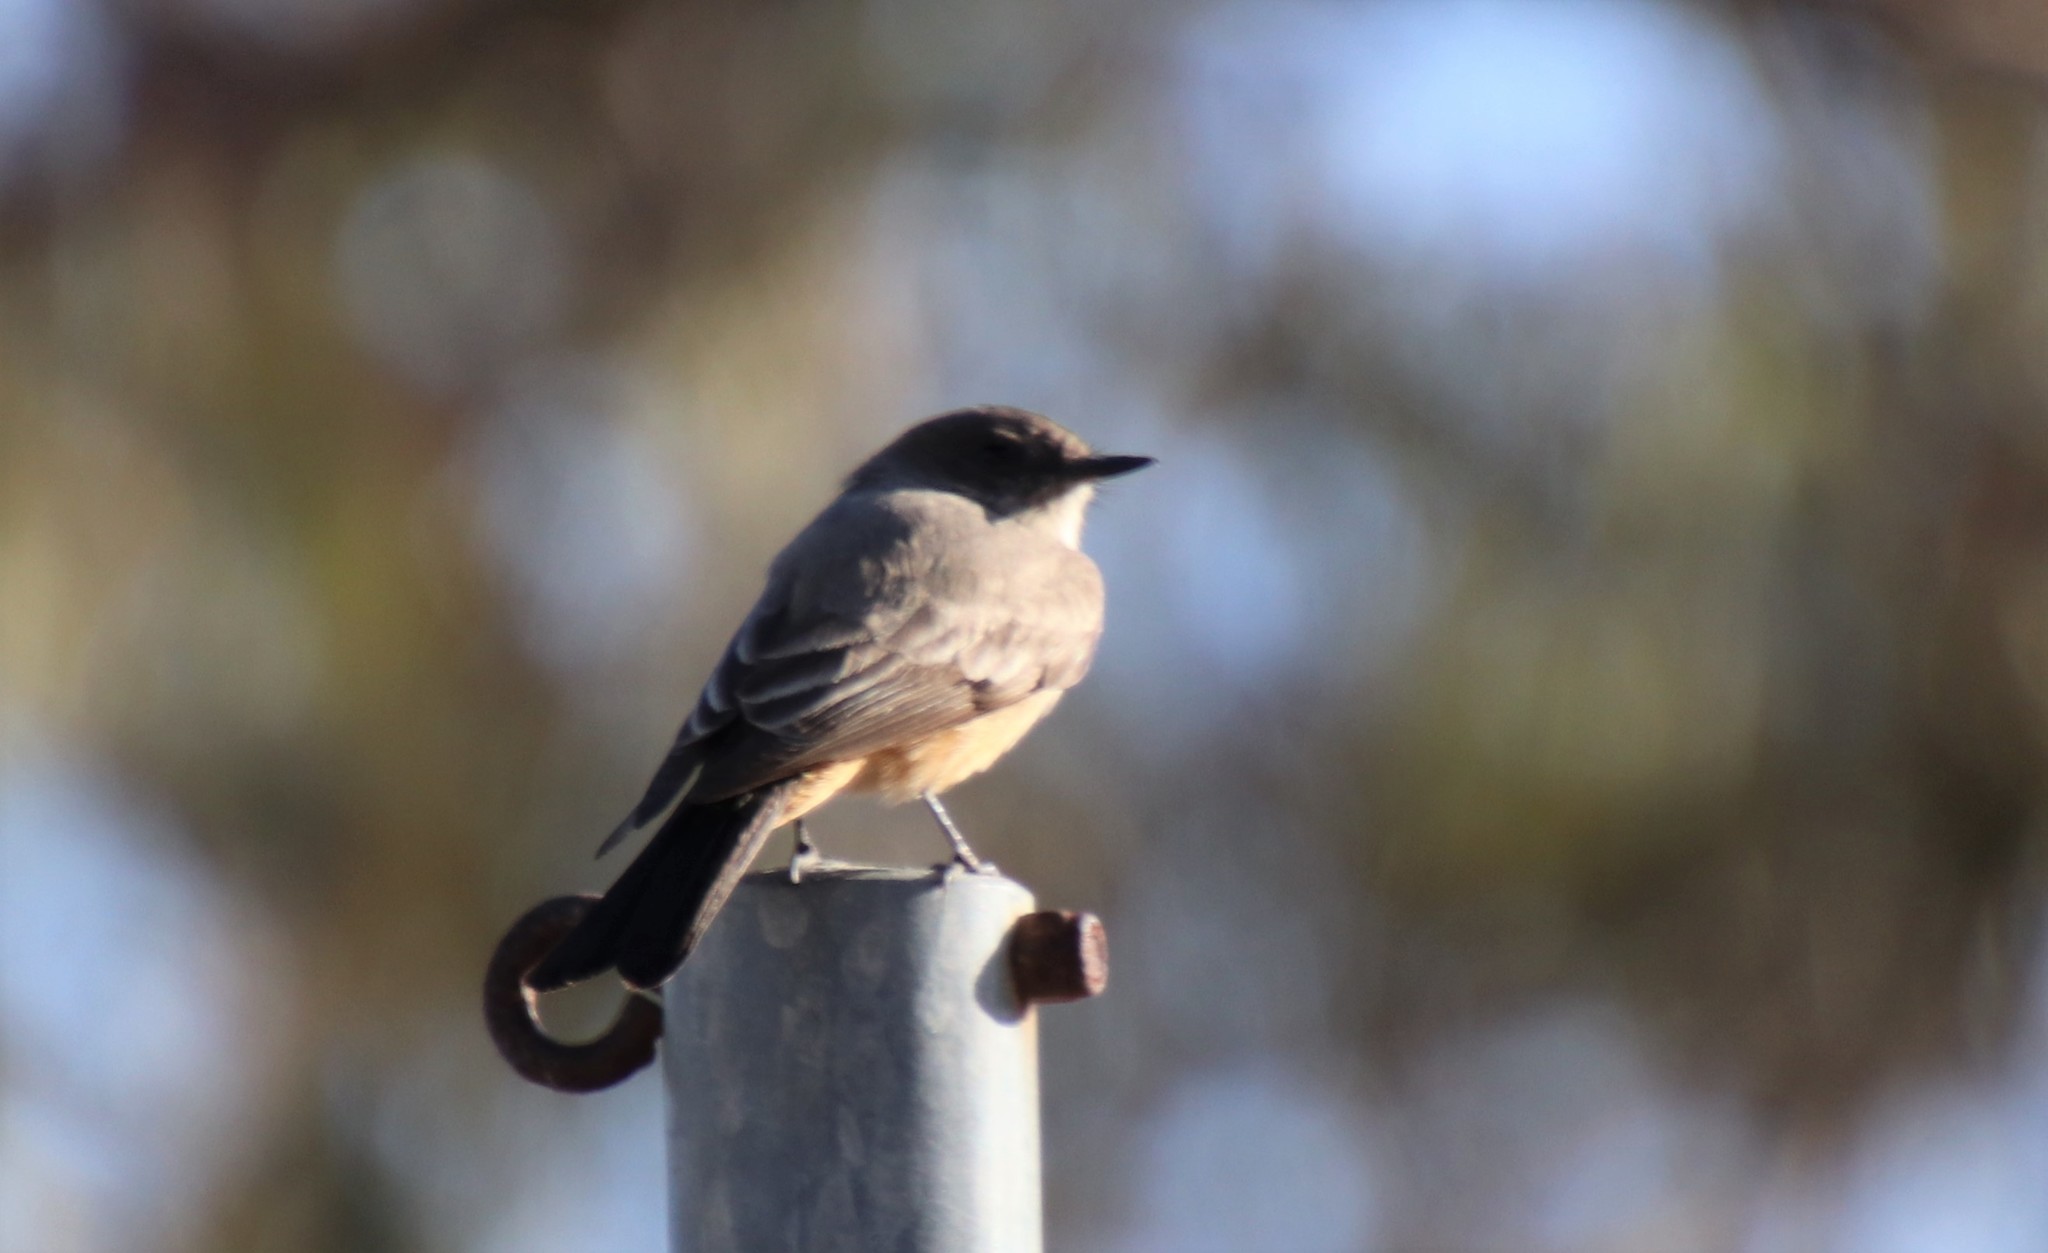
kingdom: Animalia
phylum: Chordata
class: Aves
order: Passeriformes
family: Tyrannidae
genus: Sayornis
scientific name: Sayornis saya
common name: Say's phoebe
